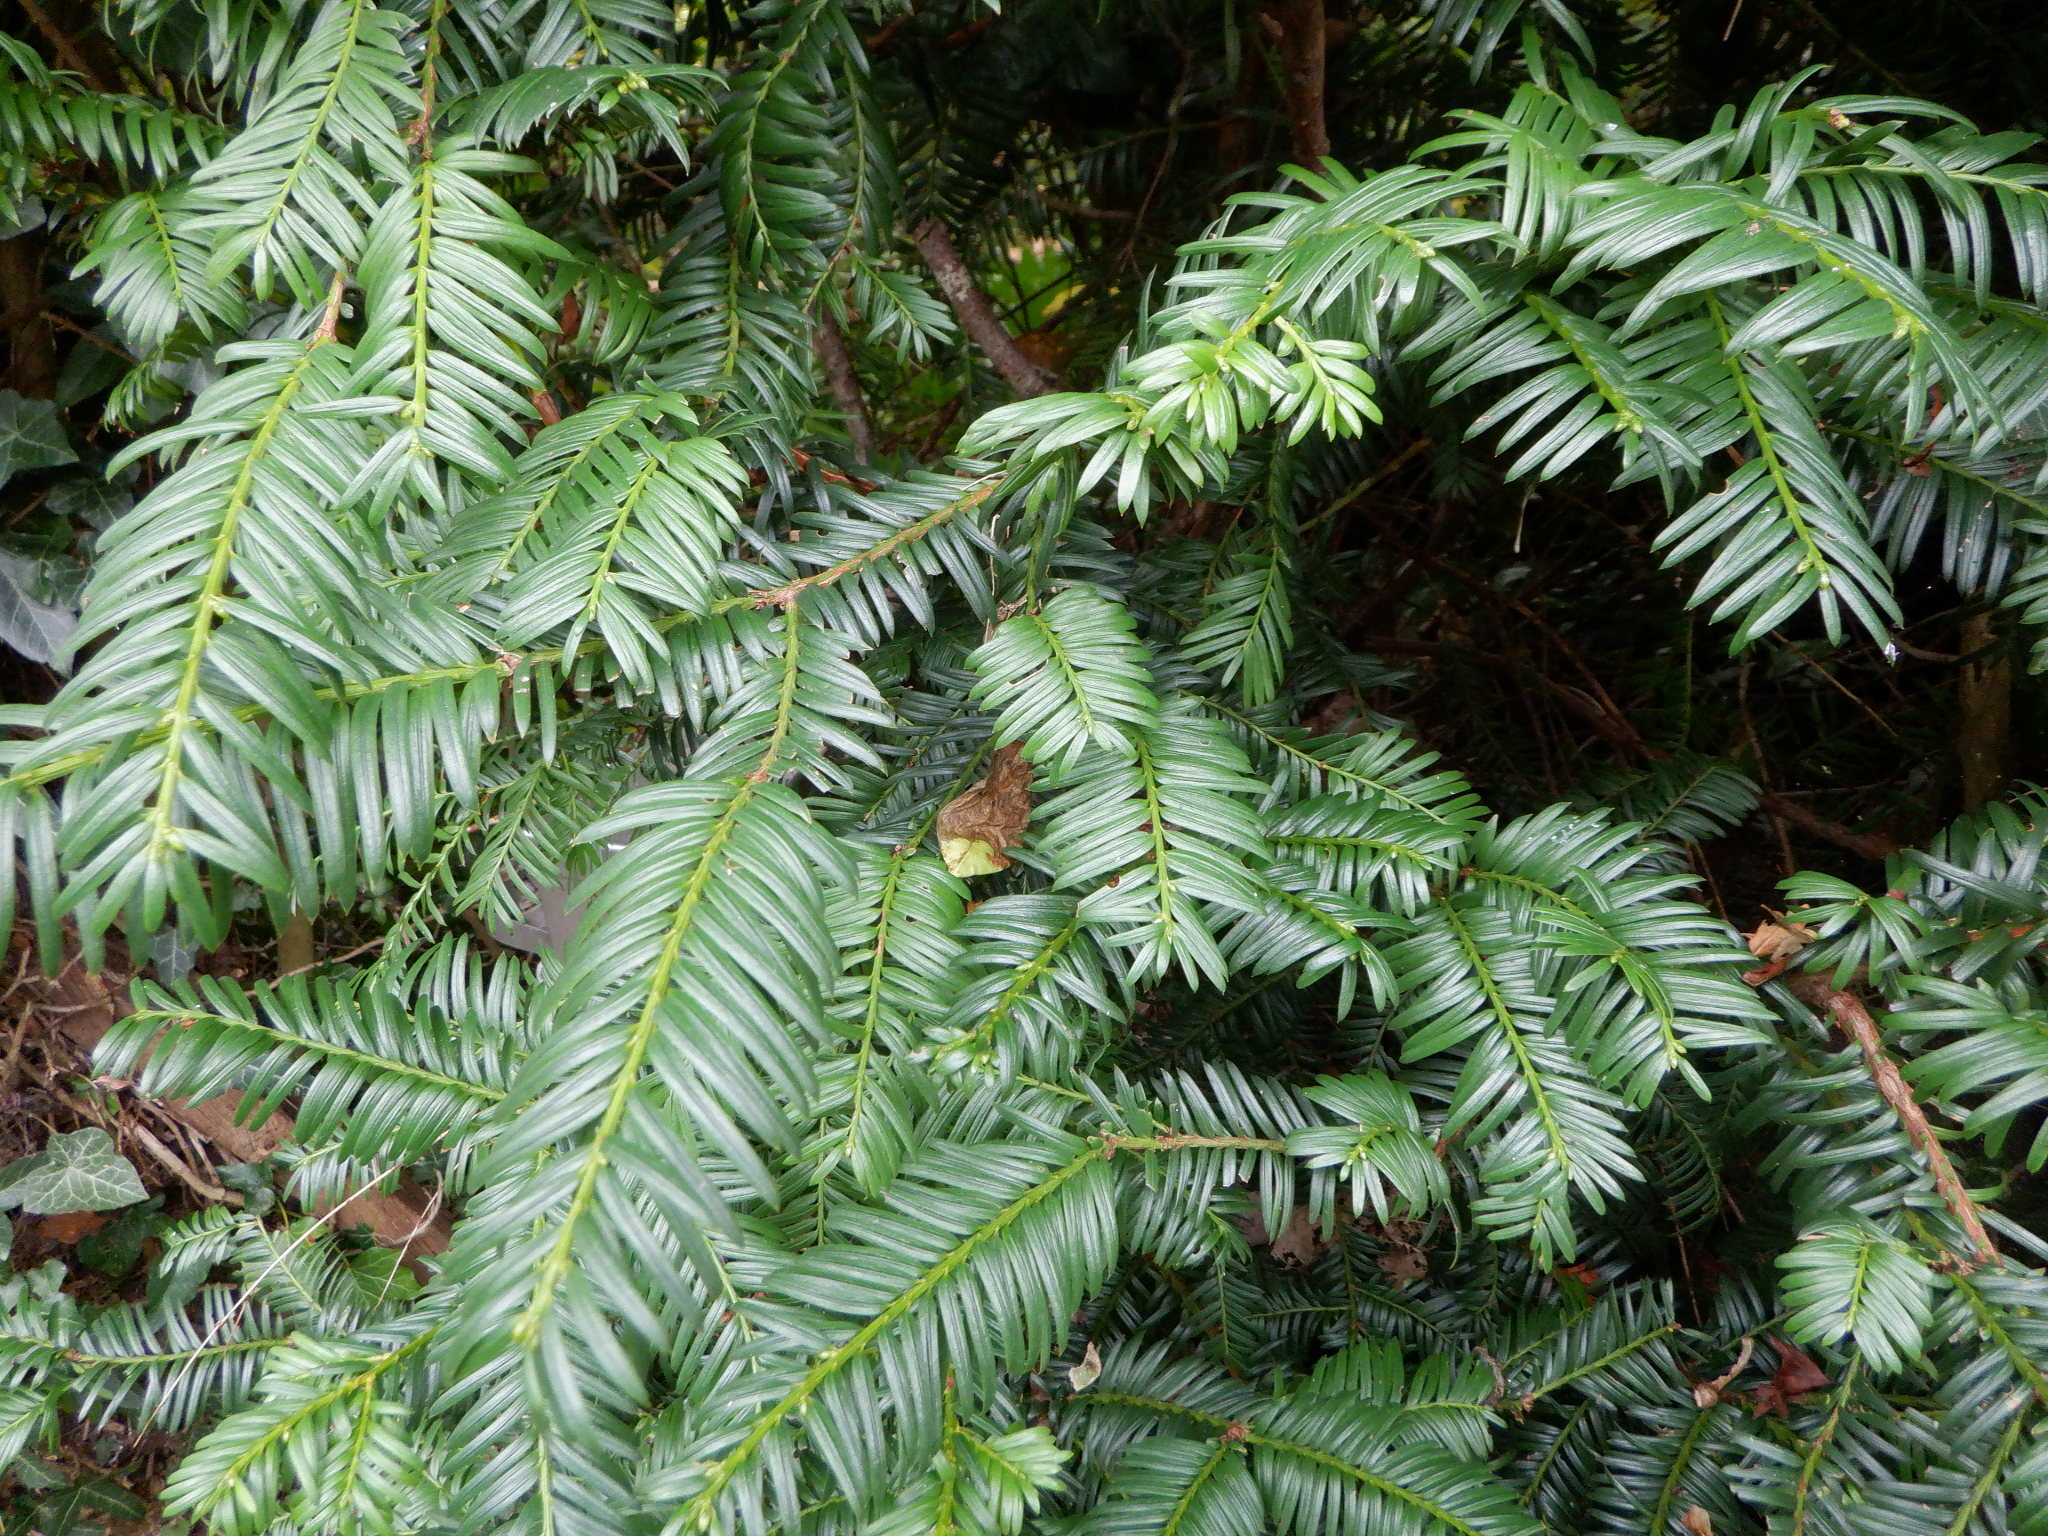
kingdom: Plantae
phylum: Tracheophyta
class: Pinopsida
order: Pinales
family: Taxaceae
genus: Taxus
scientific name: Taxus baccata
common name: Yew
